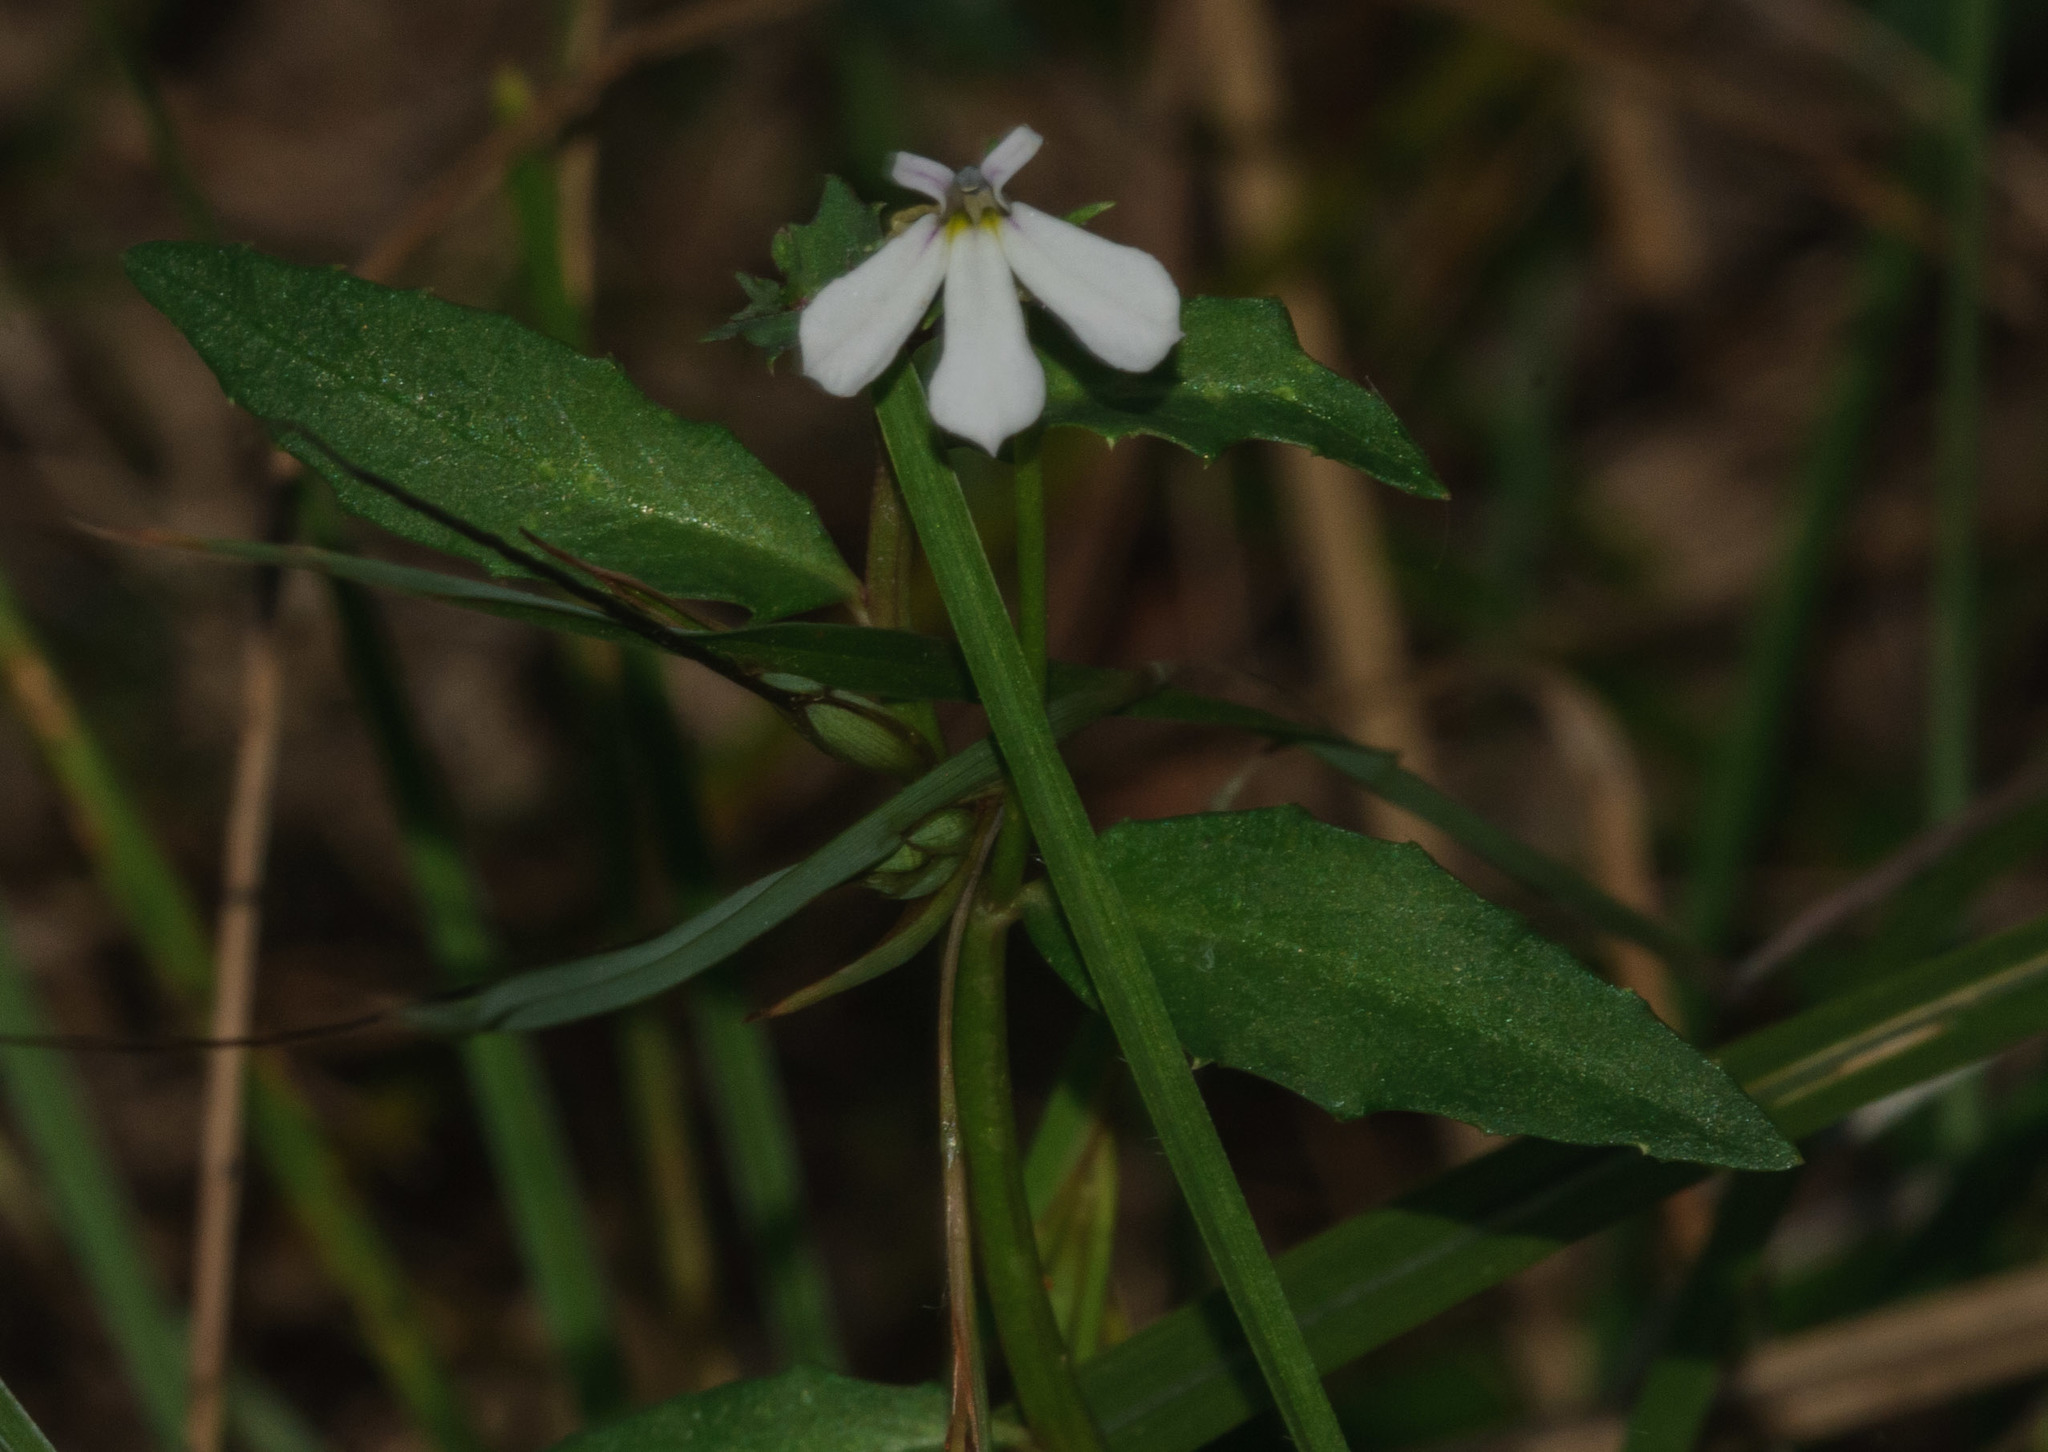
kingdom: Plantae
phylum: Tracheophyta
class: Magnoliopsida
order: Asterales
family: Campanulaceae
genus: Lobelia
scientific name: Lobelia purpurascens
